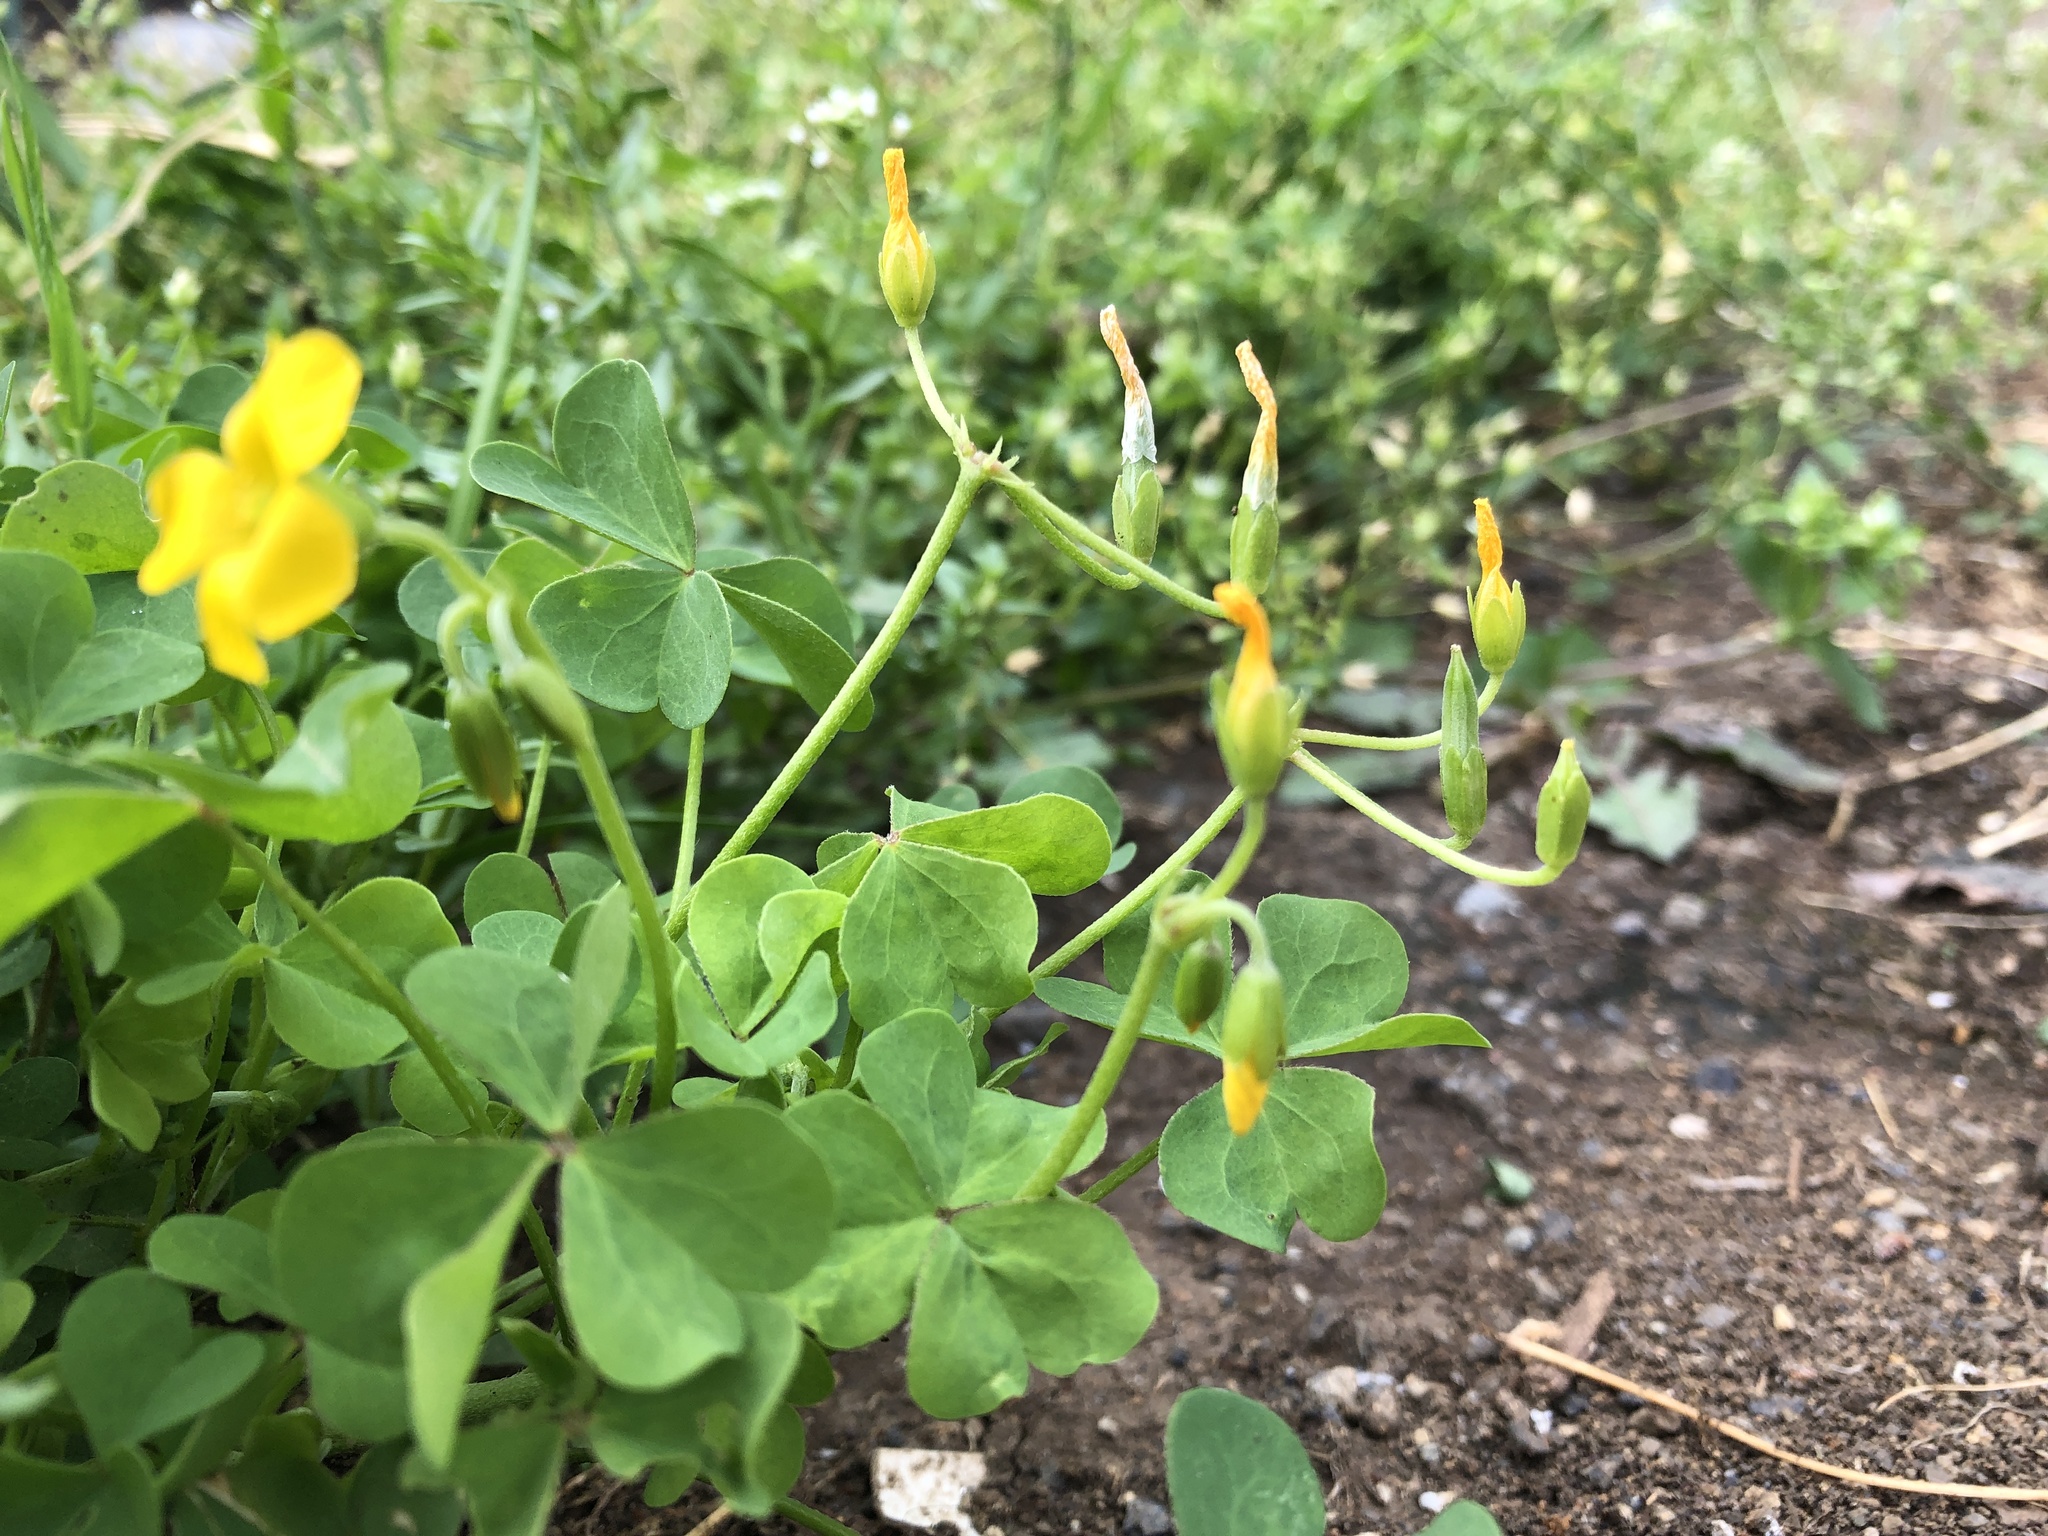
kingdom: Plantae
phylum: Tracheophyta
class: Magnoliopsida
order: Oxalidales
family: Oxalidaceae
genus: Oxalis
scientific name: Oxalis dillenii
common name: Sussex yellow-sorrel
